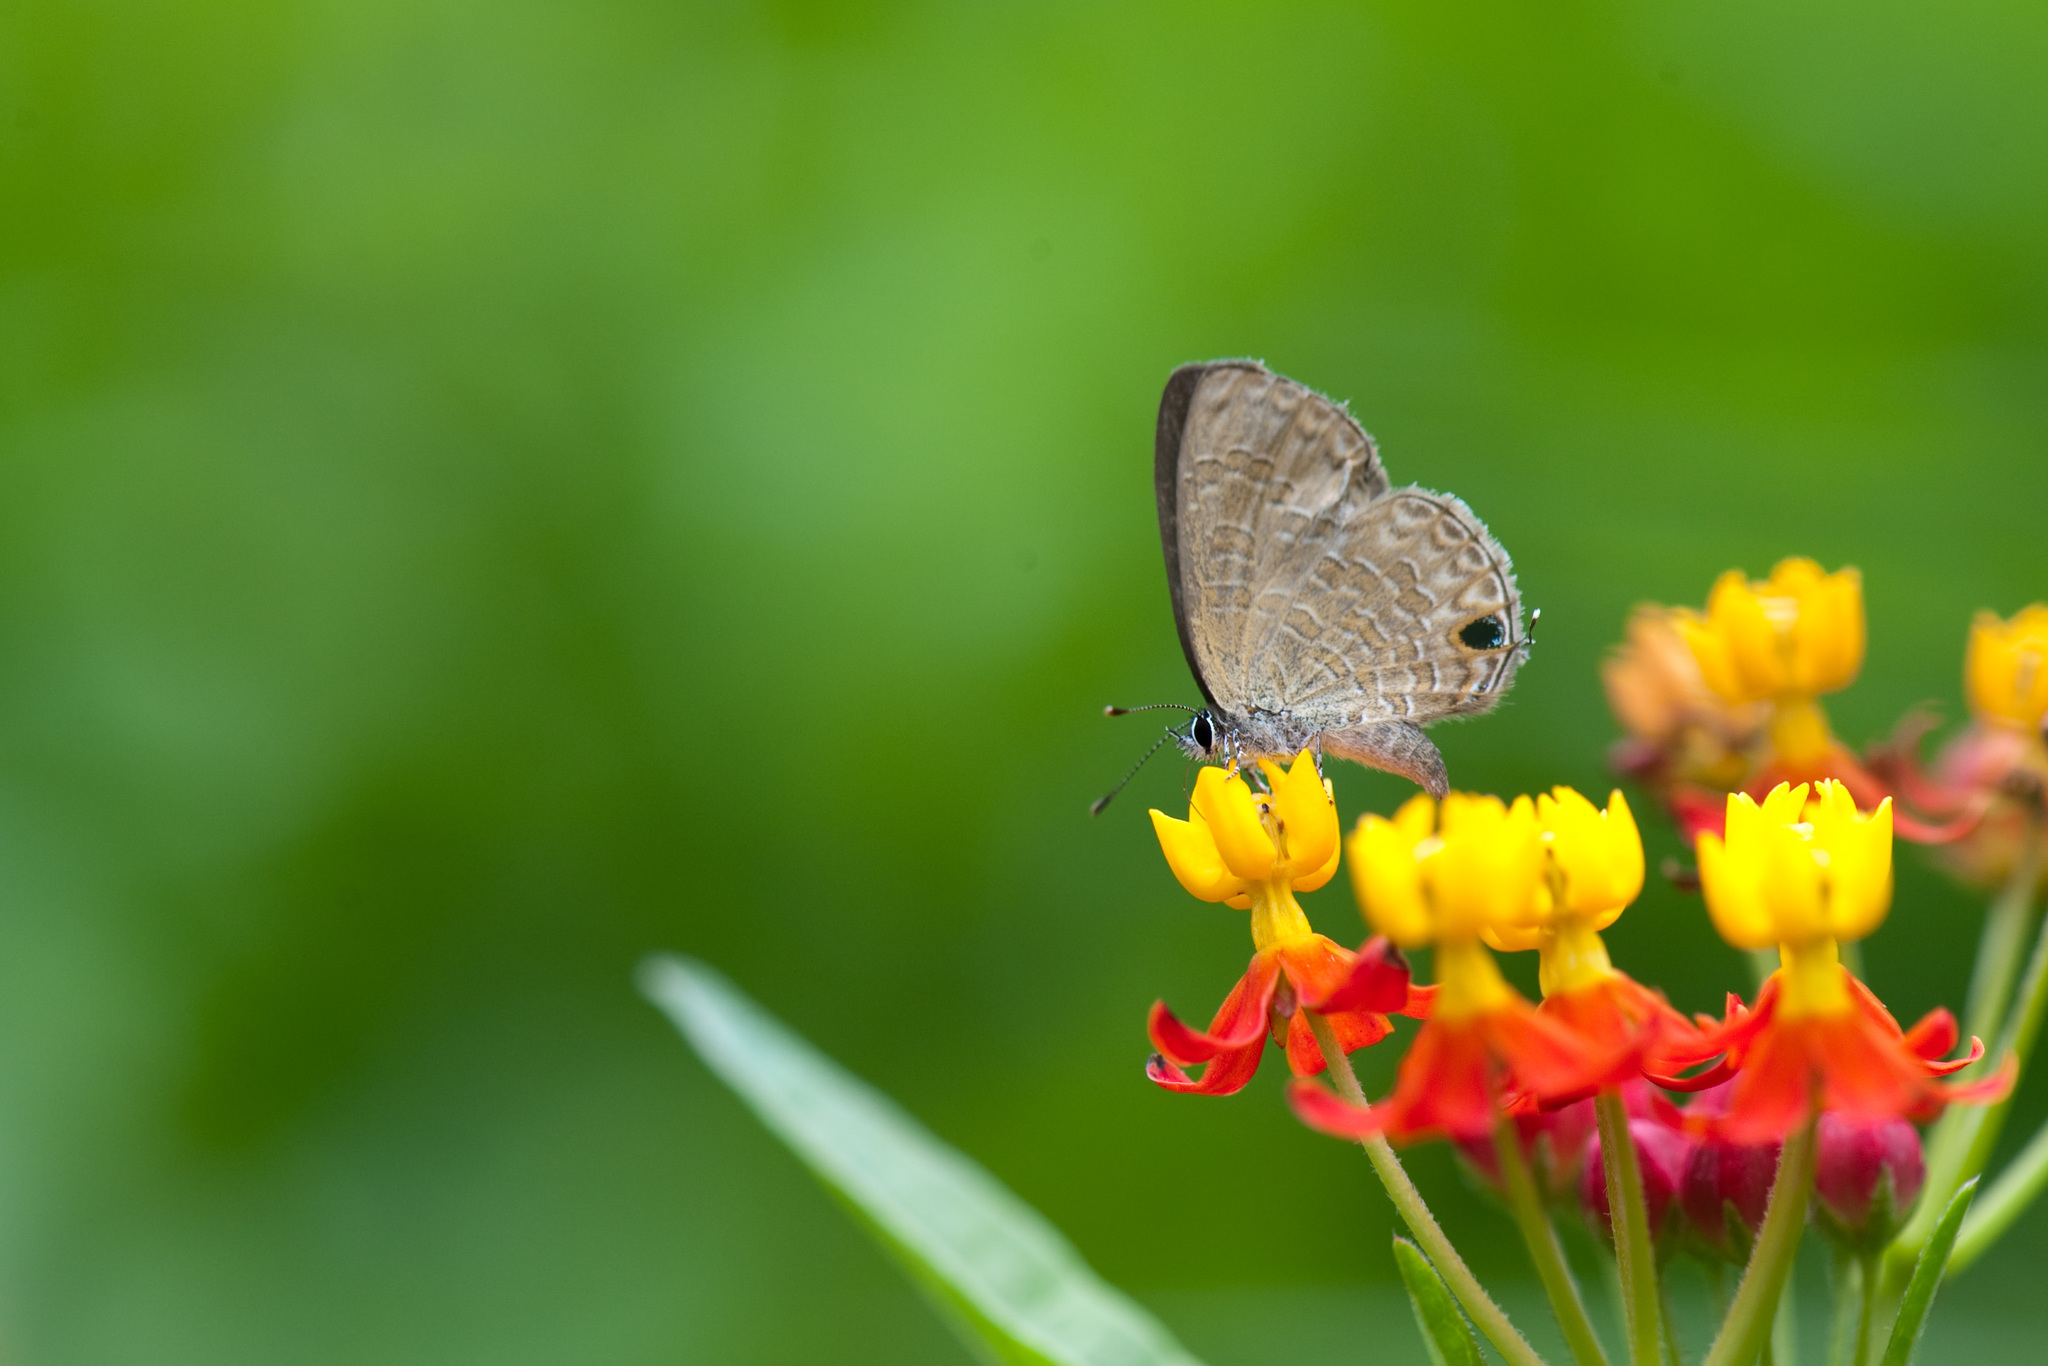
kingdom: Animalia
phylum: Arthropoda
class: Insecta
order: Lepidoptera
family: Lycaenidae
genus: Prosotas
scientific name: Prosotas nora
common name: Common line blue
